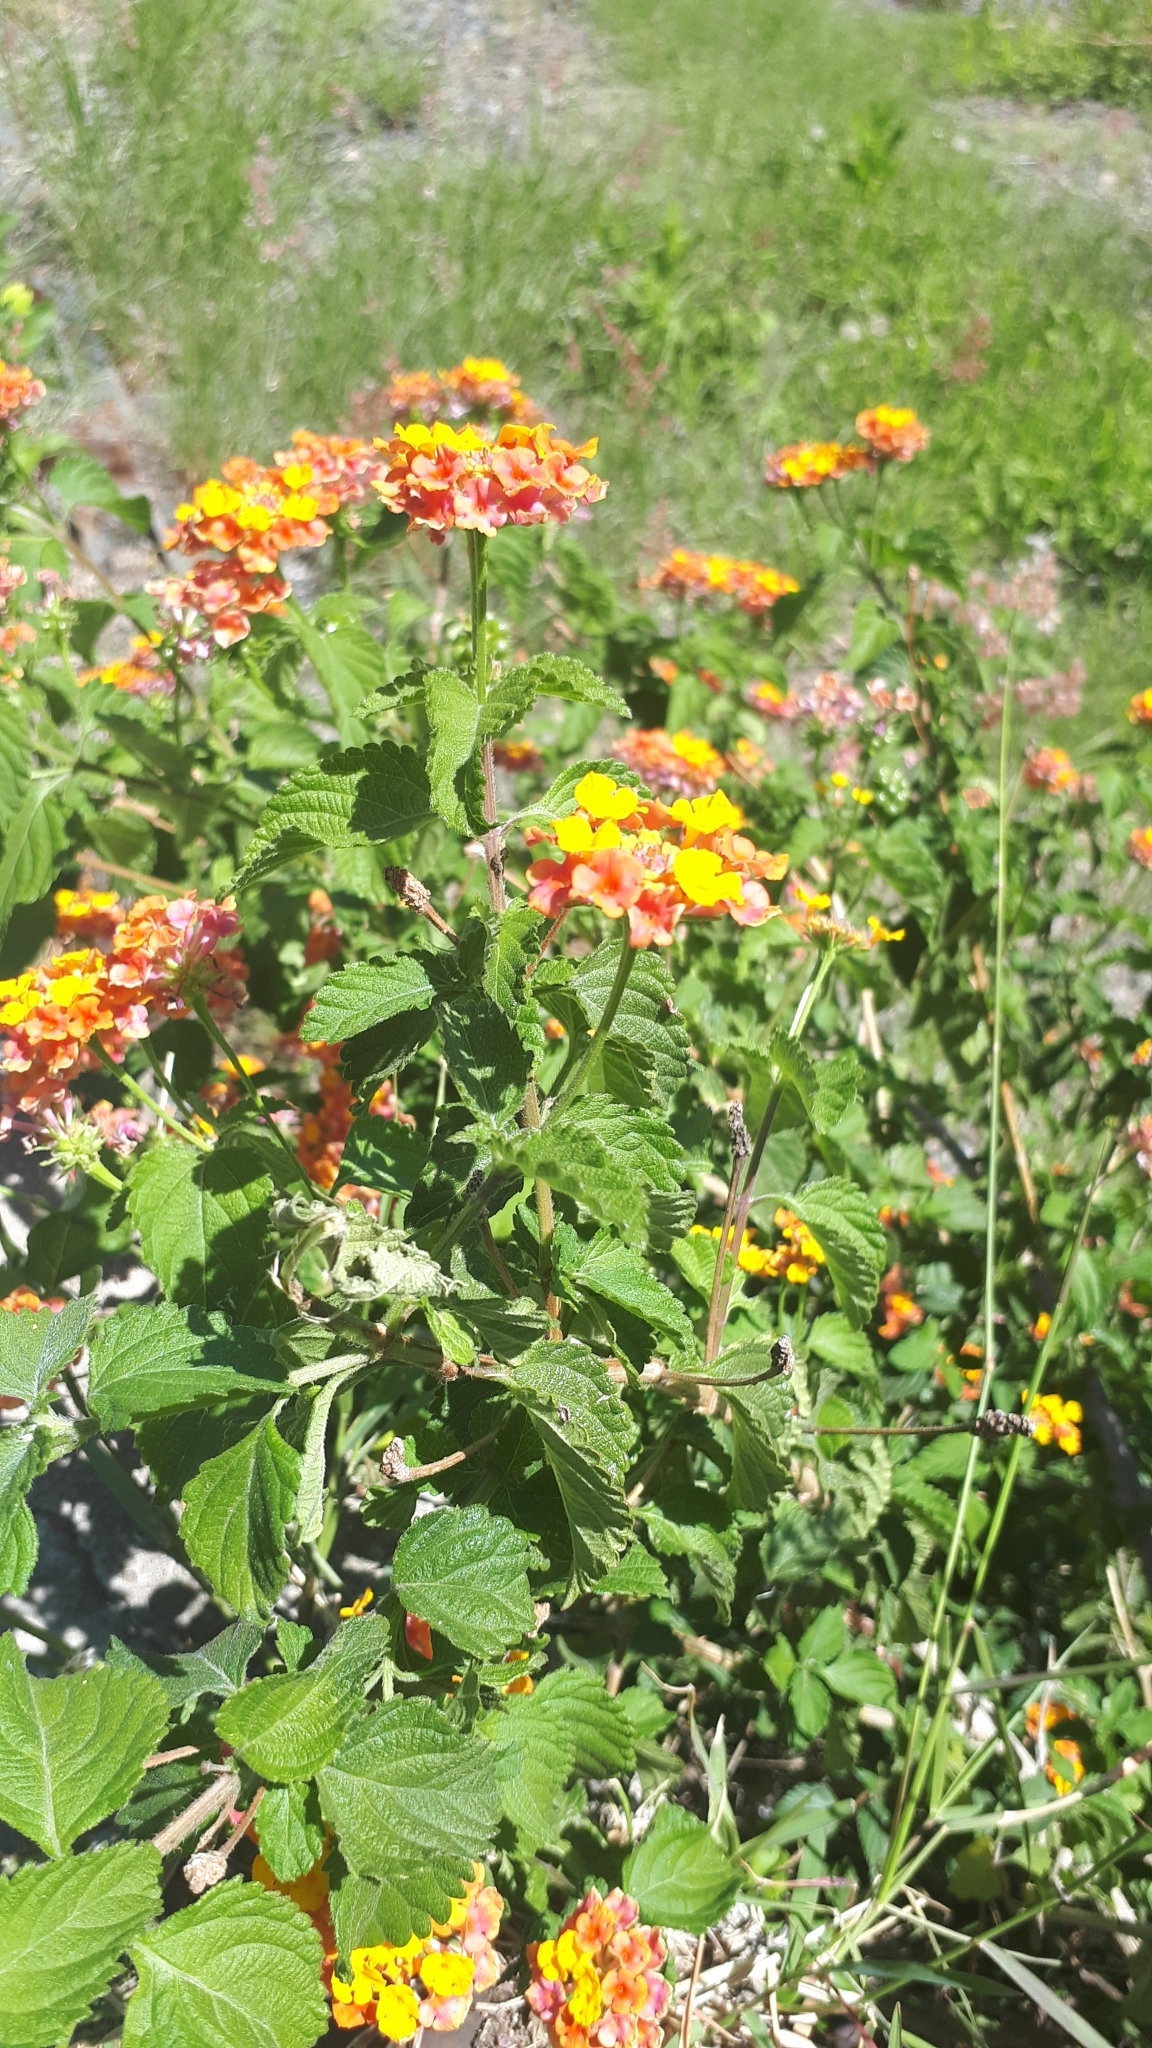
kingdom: Plantae
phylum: Tracheophyta
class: Magnoliopsida
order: Lamiales
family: Verbenaceae
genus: Lantana
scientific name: Lantana camara
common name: Lantana
